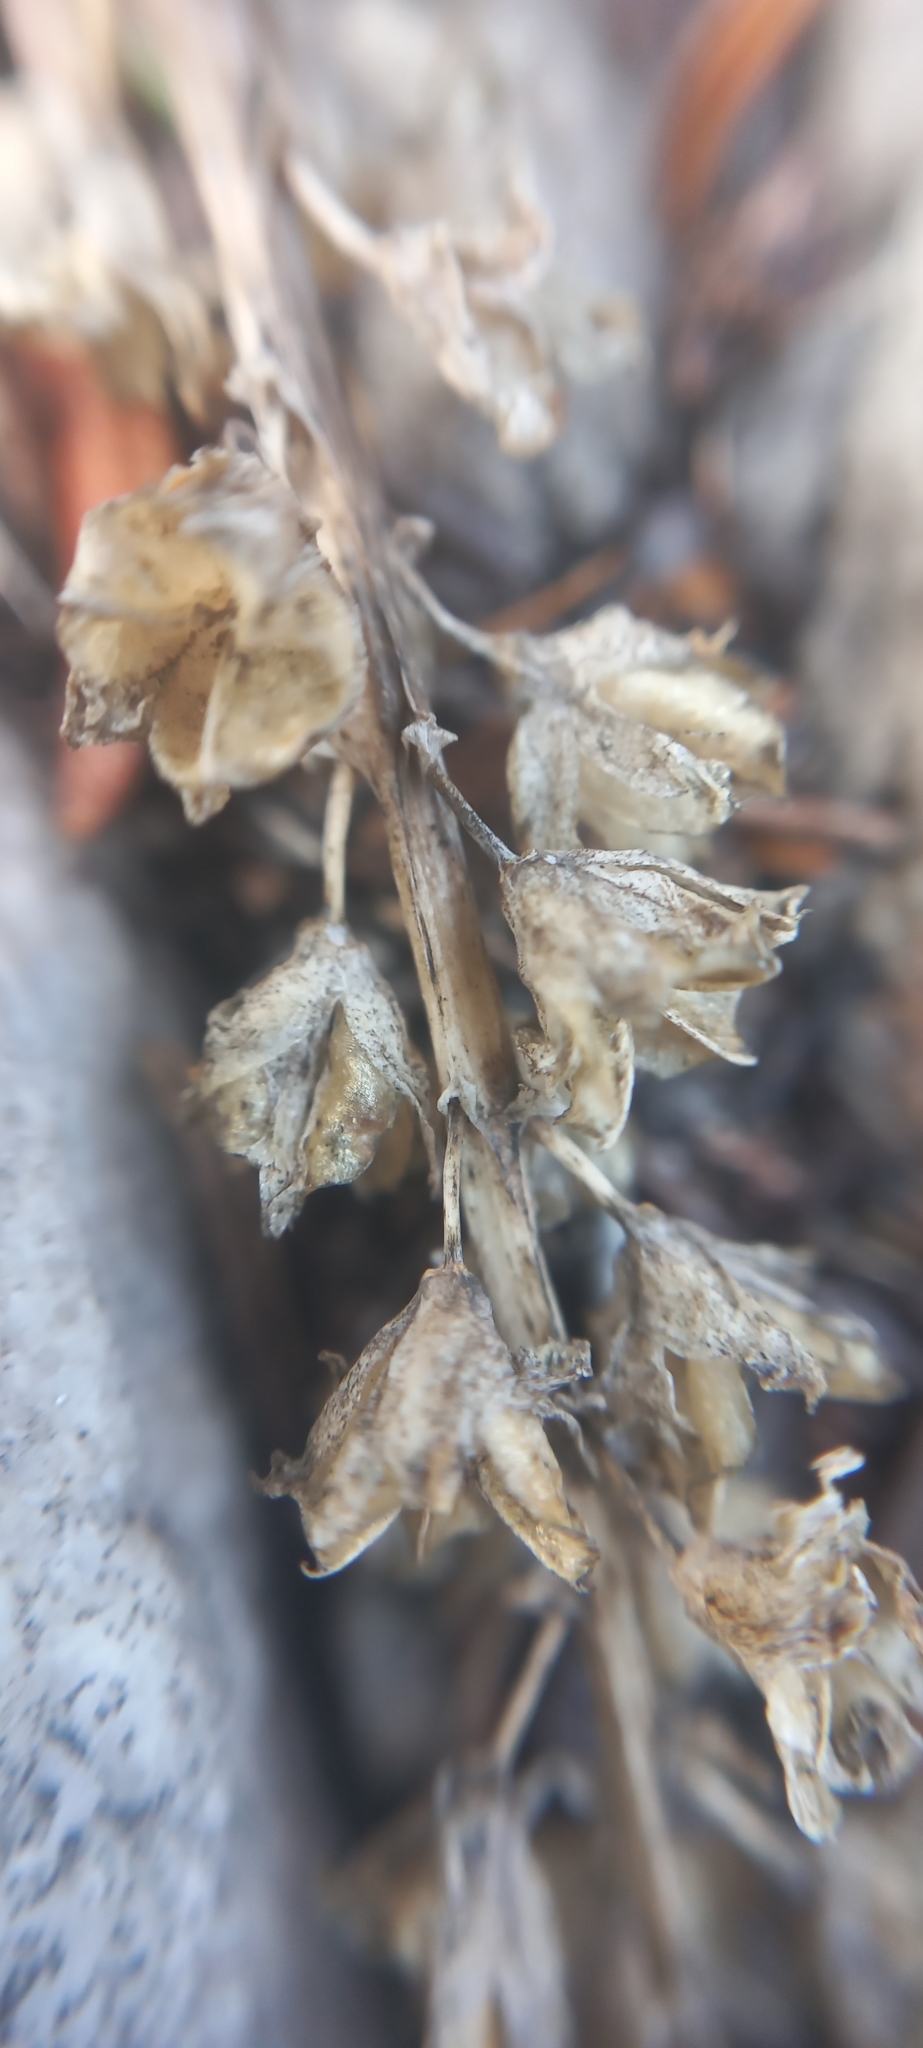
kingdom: Plantae
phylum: Tracheophyta
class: Liliopsida
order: Asparagales
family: Asparagaceae
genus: Lachenalia
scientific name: Lachenalia peersii
